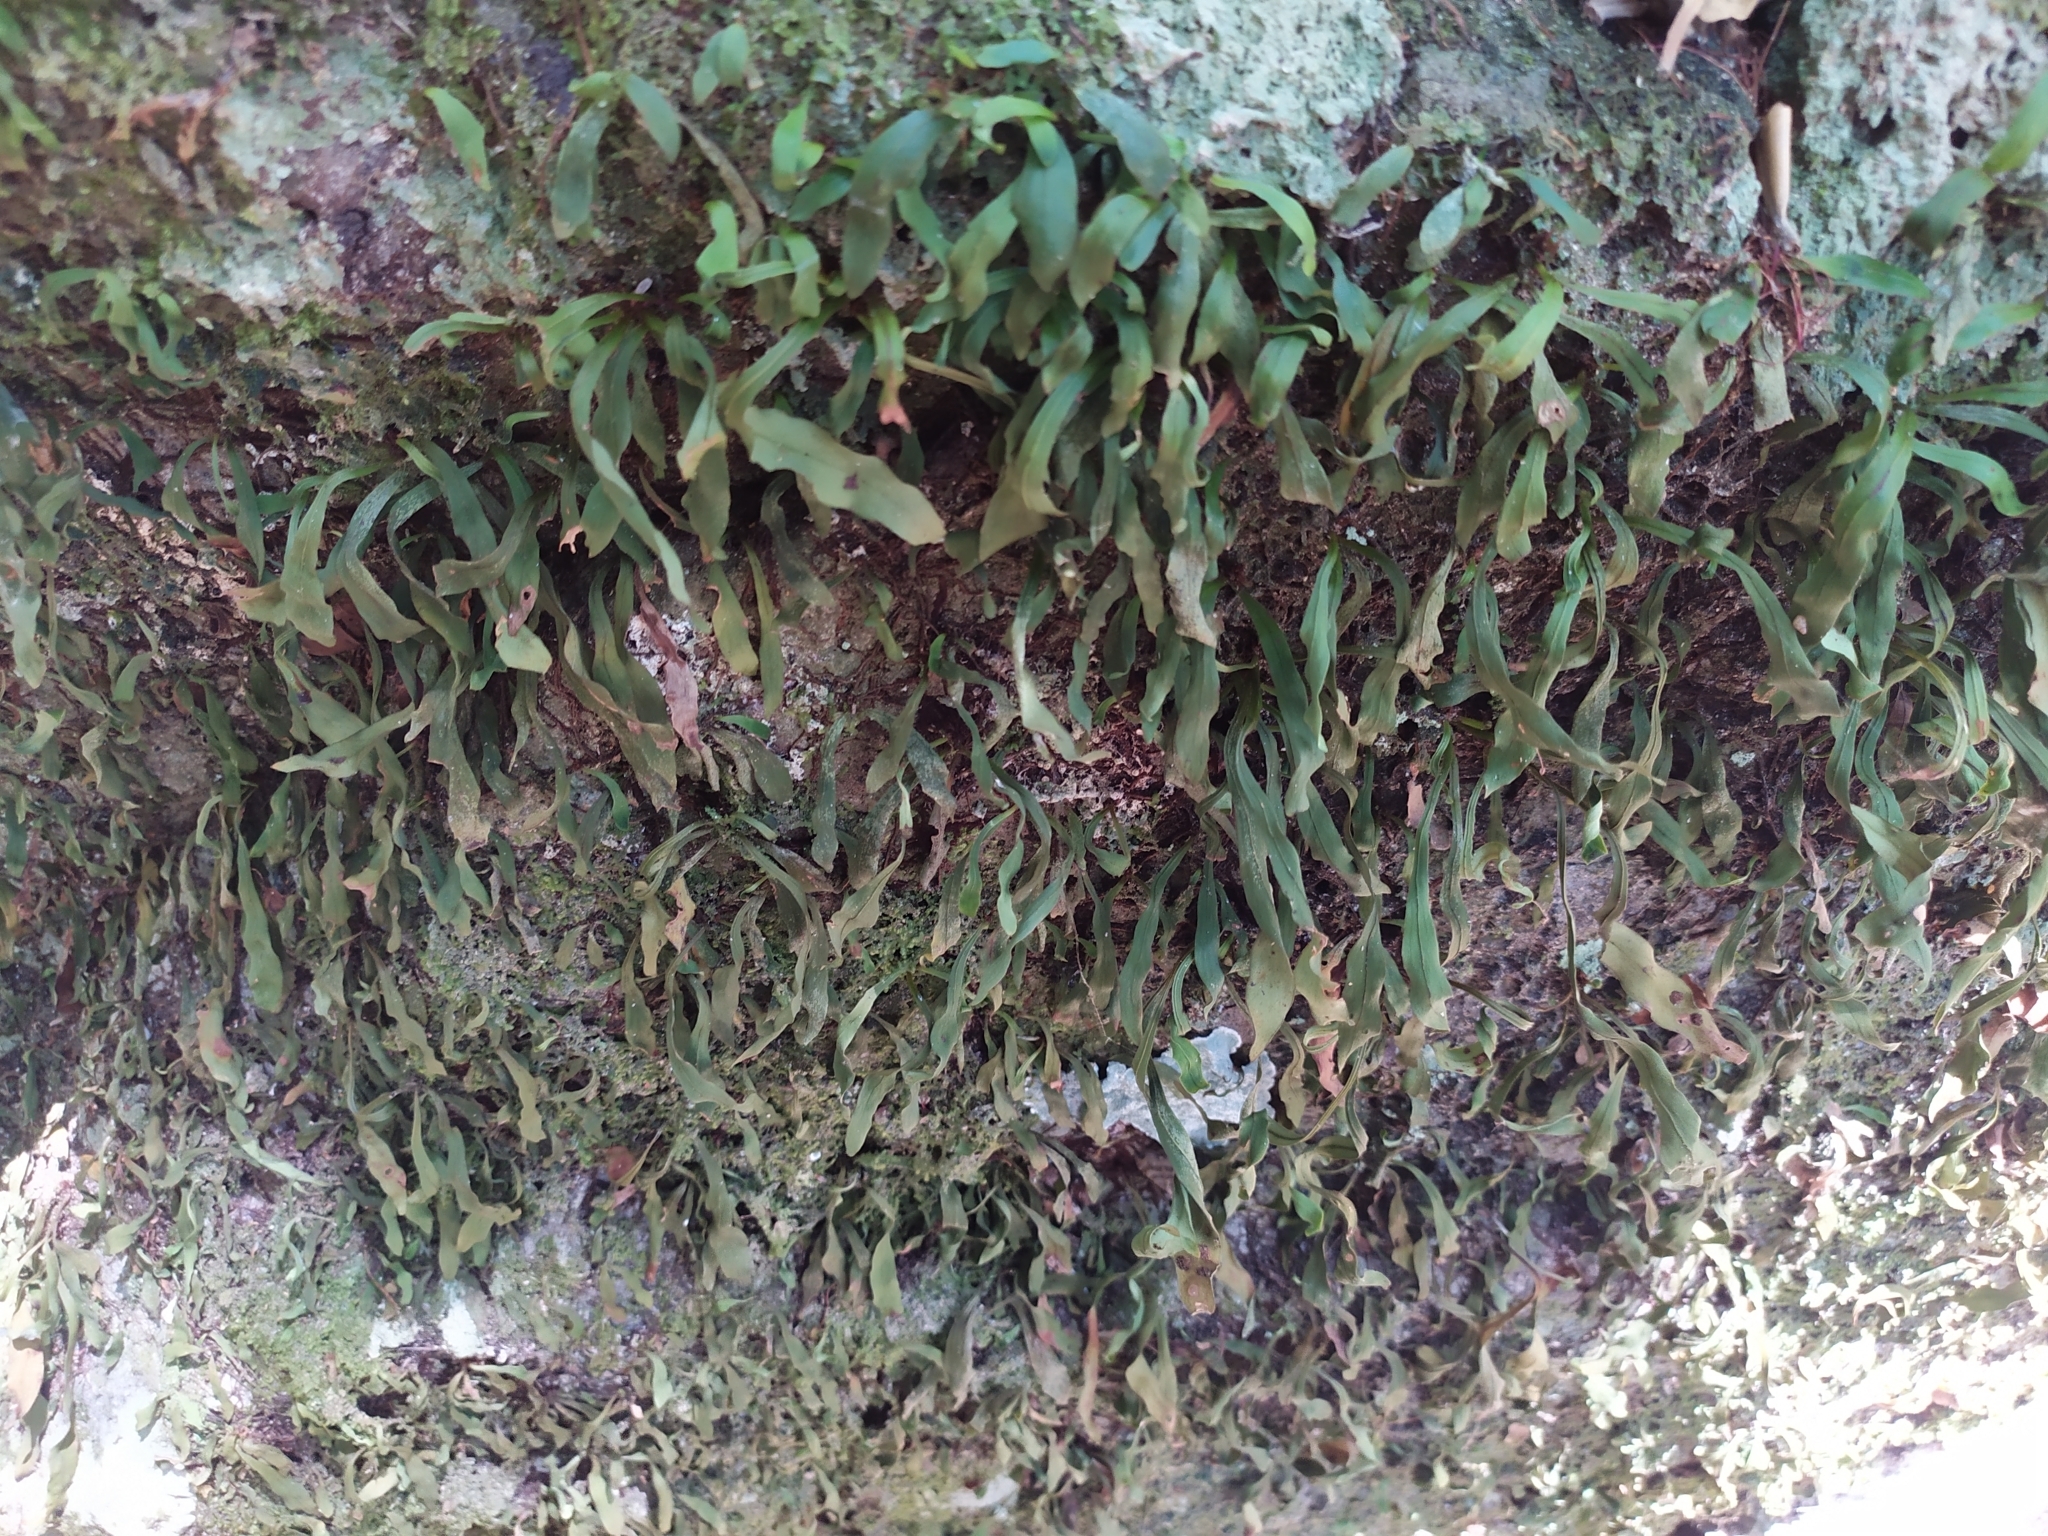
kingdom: Plantae
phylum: Tracheophyta
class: Polypodiopsida
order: Polypodiales
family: Polypodiaceae
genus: Loxogramme
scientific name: Loxogramme dictyopteris
